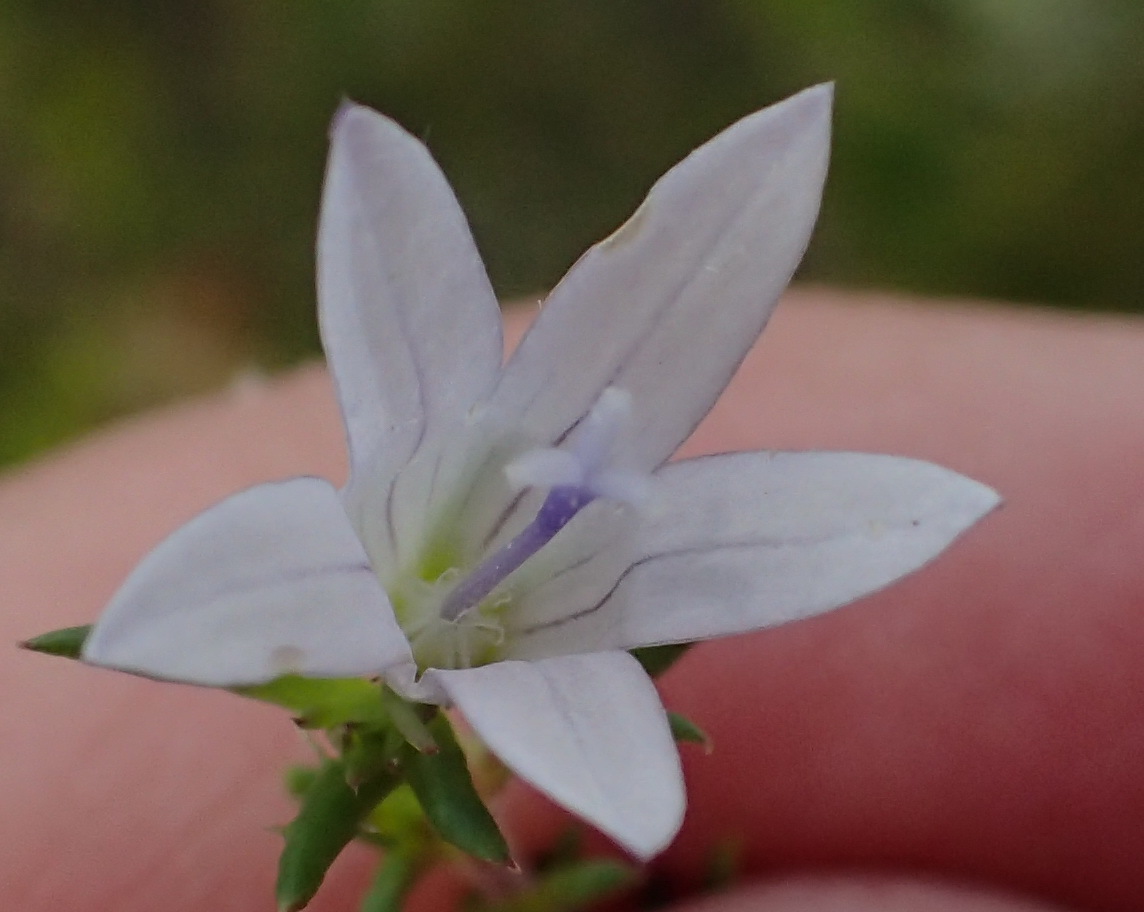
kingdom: Plantae
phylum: Tracheophyta
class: Magnoliopsida
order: Asterales
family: Campanulaceae
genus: Wahlenbergia
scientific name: Wahlenbergia stellarioides
